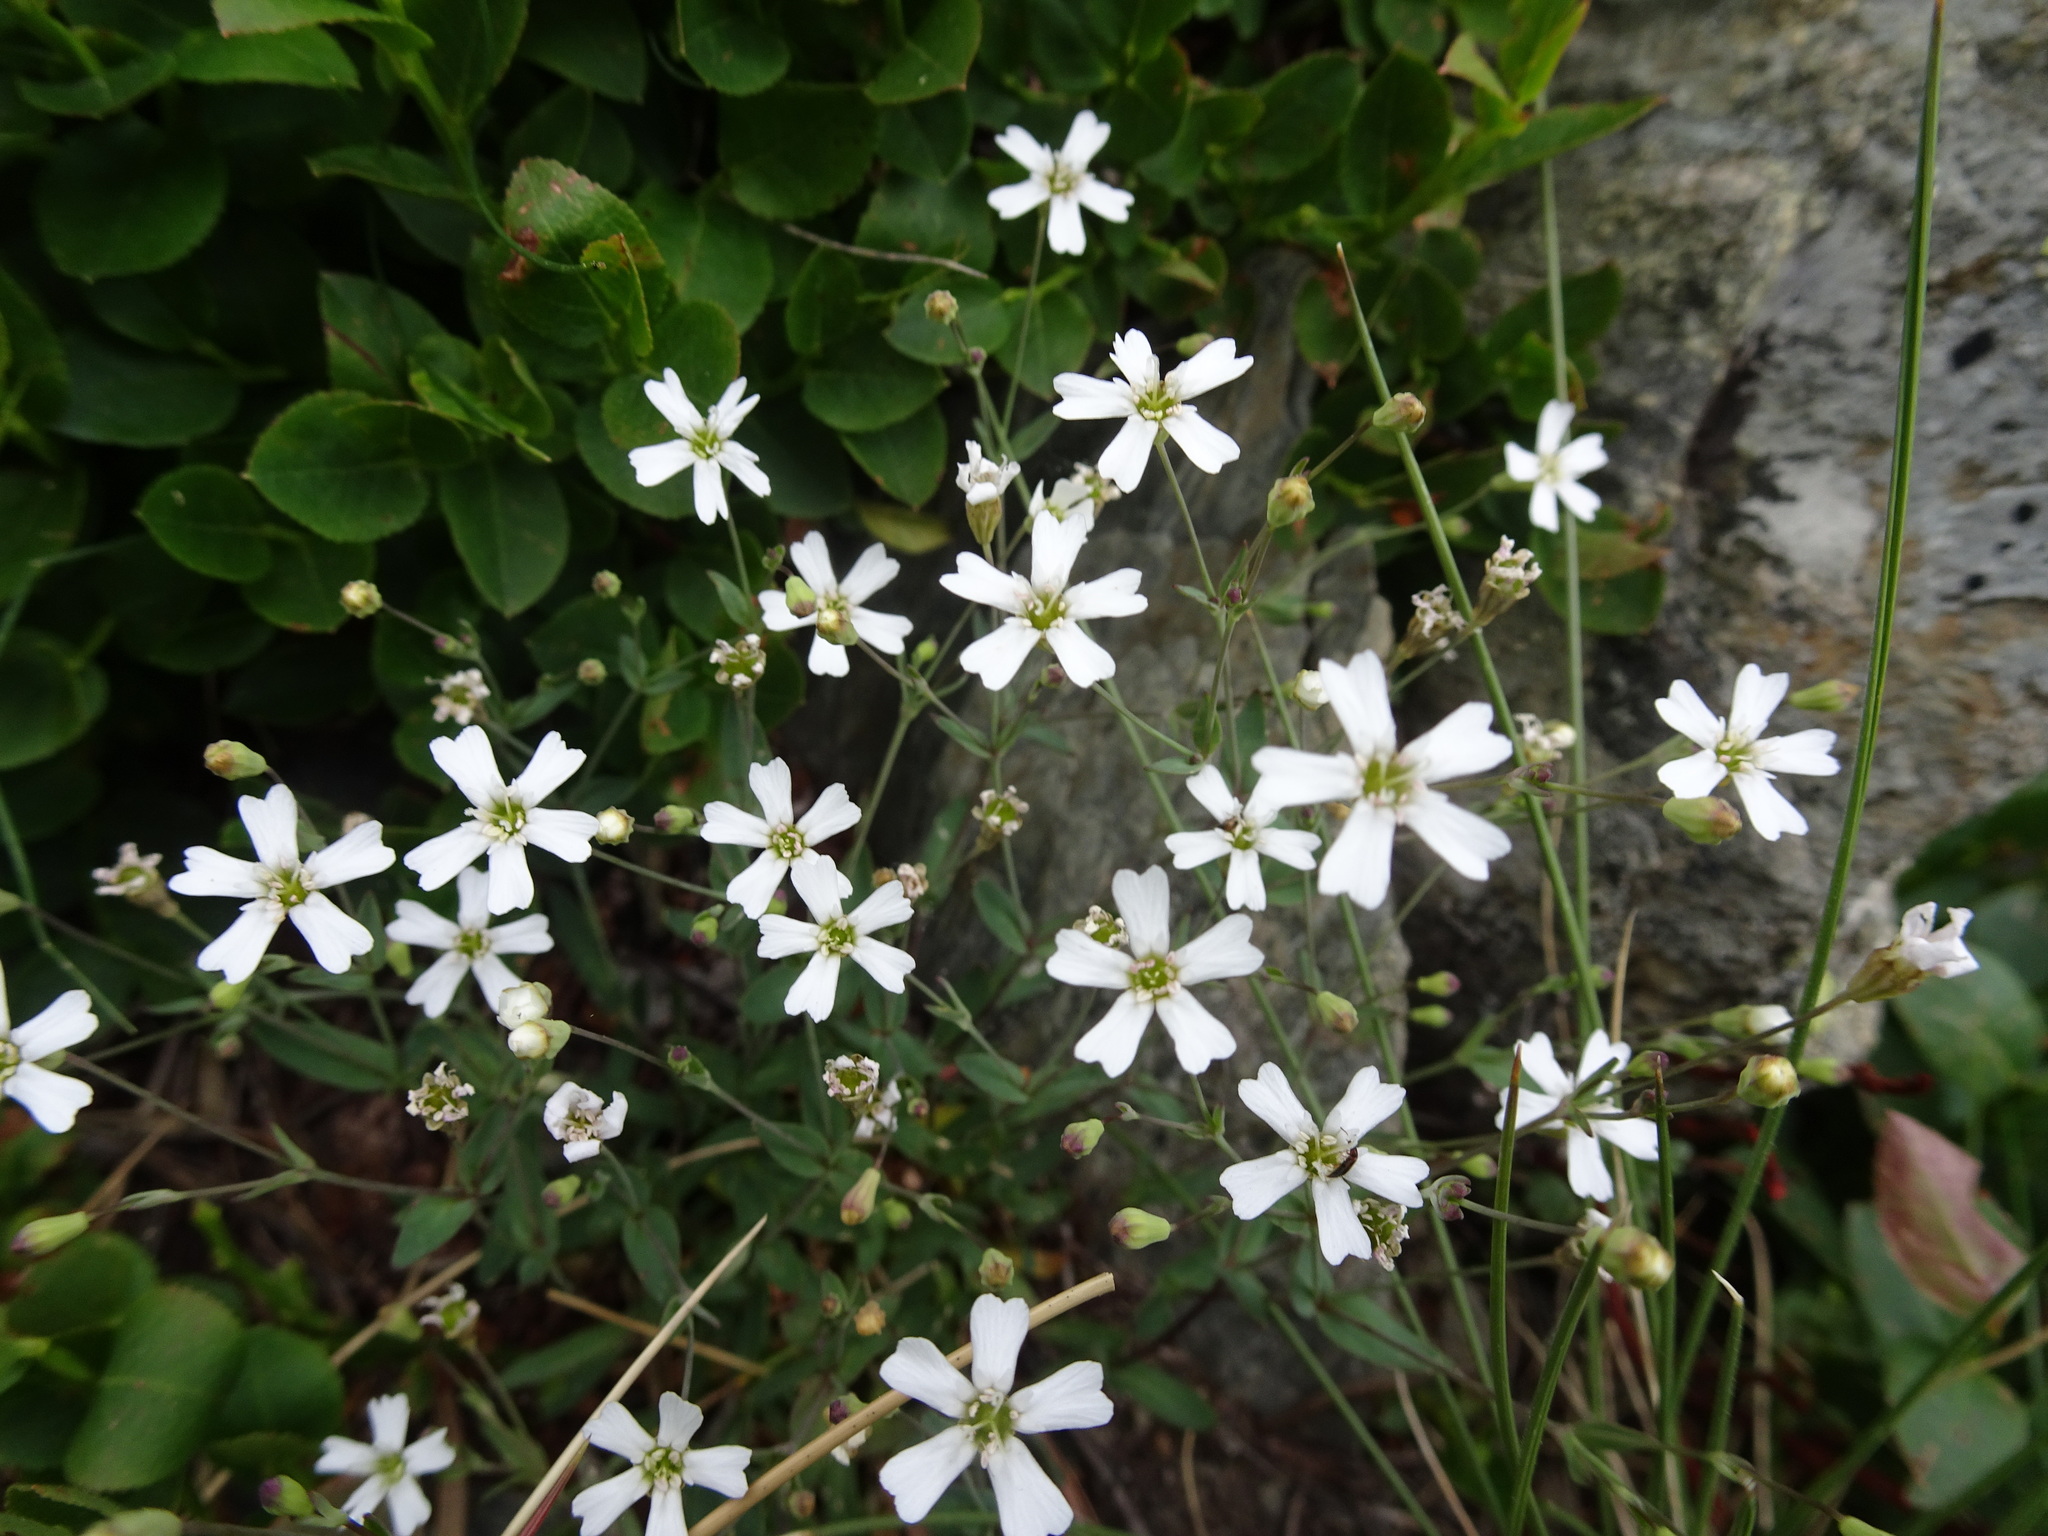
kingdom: Plantae
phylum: Tracheophyta
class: Magnoliopsida
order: Caryophyllales
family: Caryophyllaceae
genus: Atocion
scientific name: Atocion rupestre
